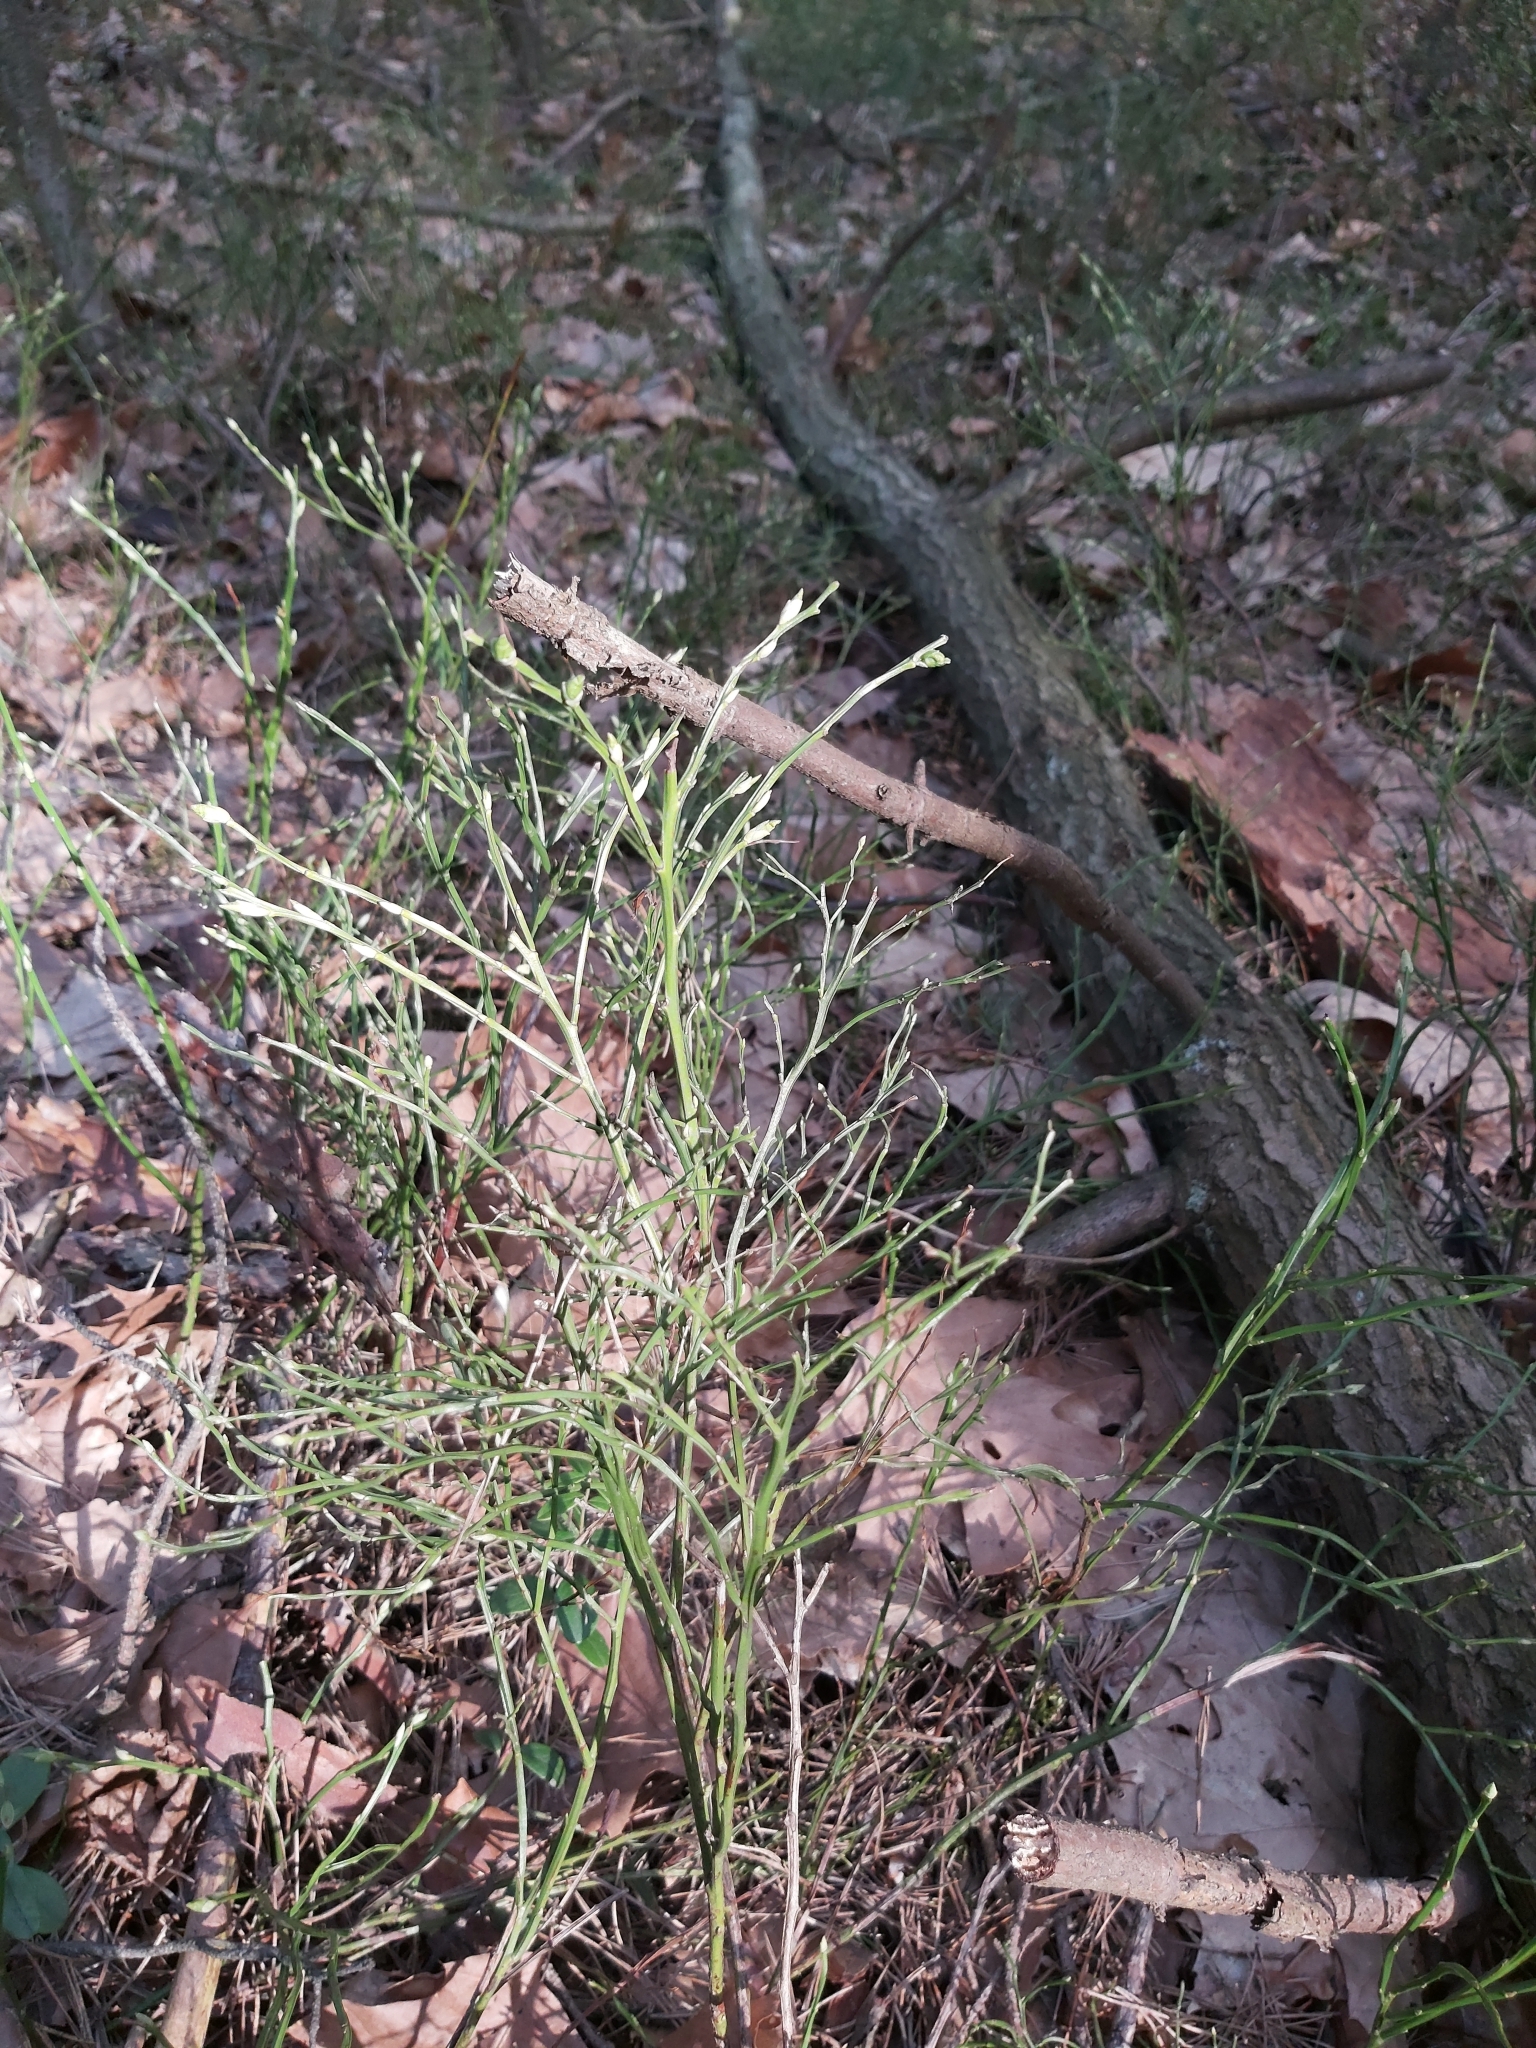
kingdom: Plantae
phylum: Tracheophyta
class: Magnoliopsida
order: Ericales
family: Ericaceae
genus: Vaccinium
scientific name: Vaccinium myrtillus
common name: Bilberry
